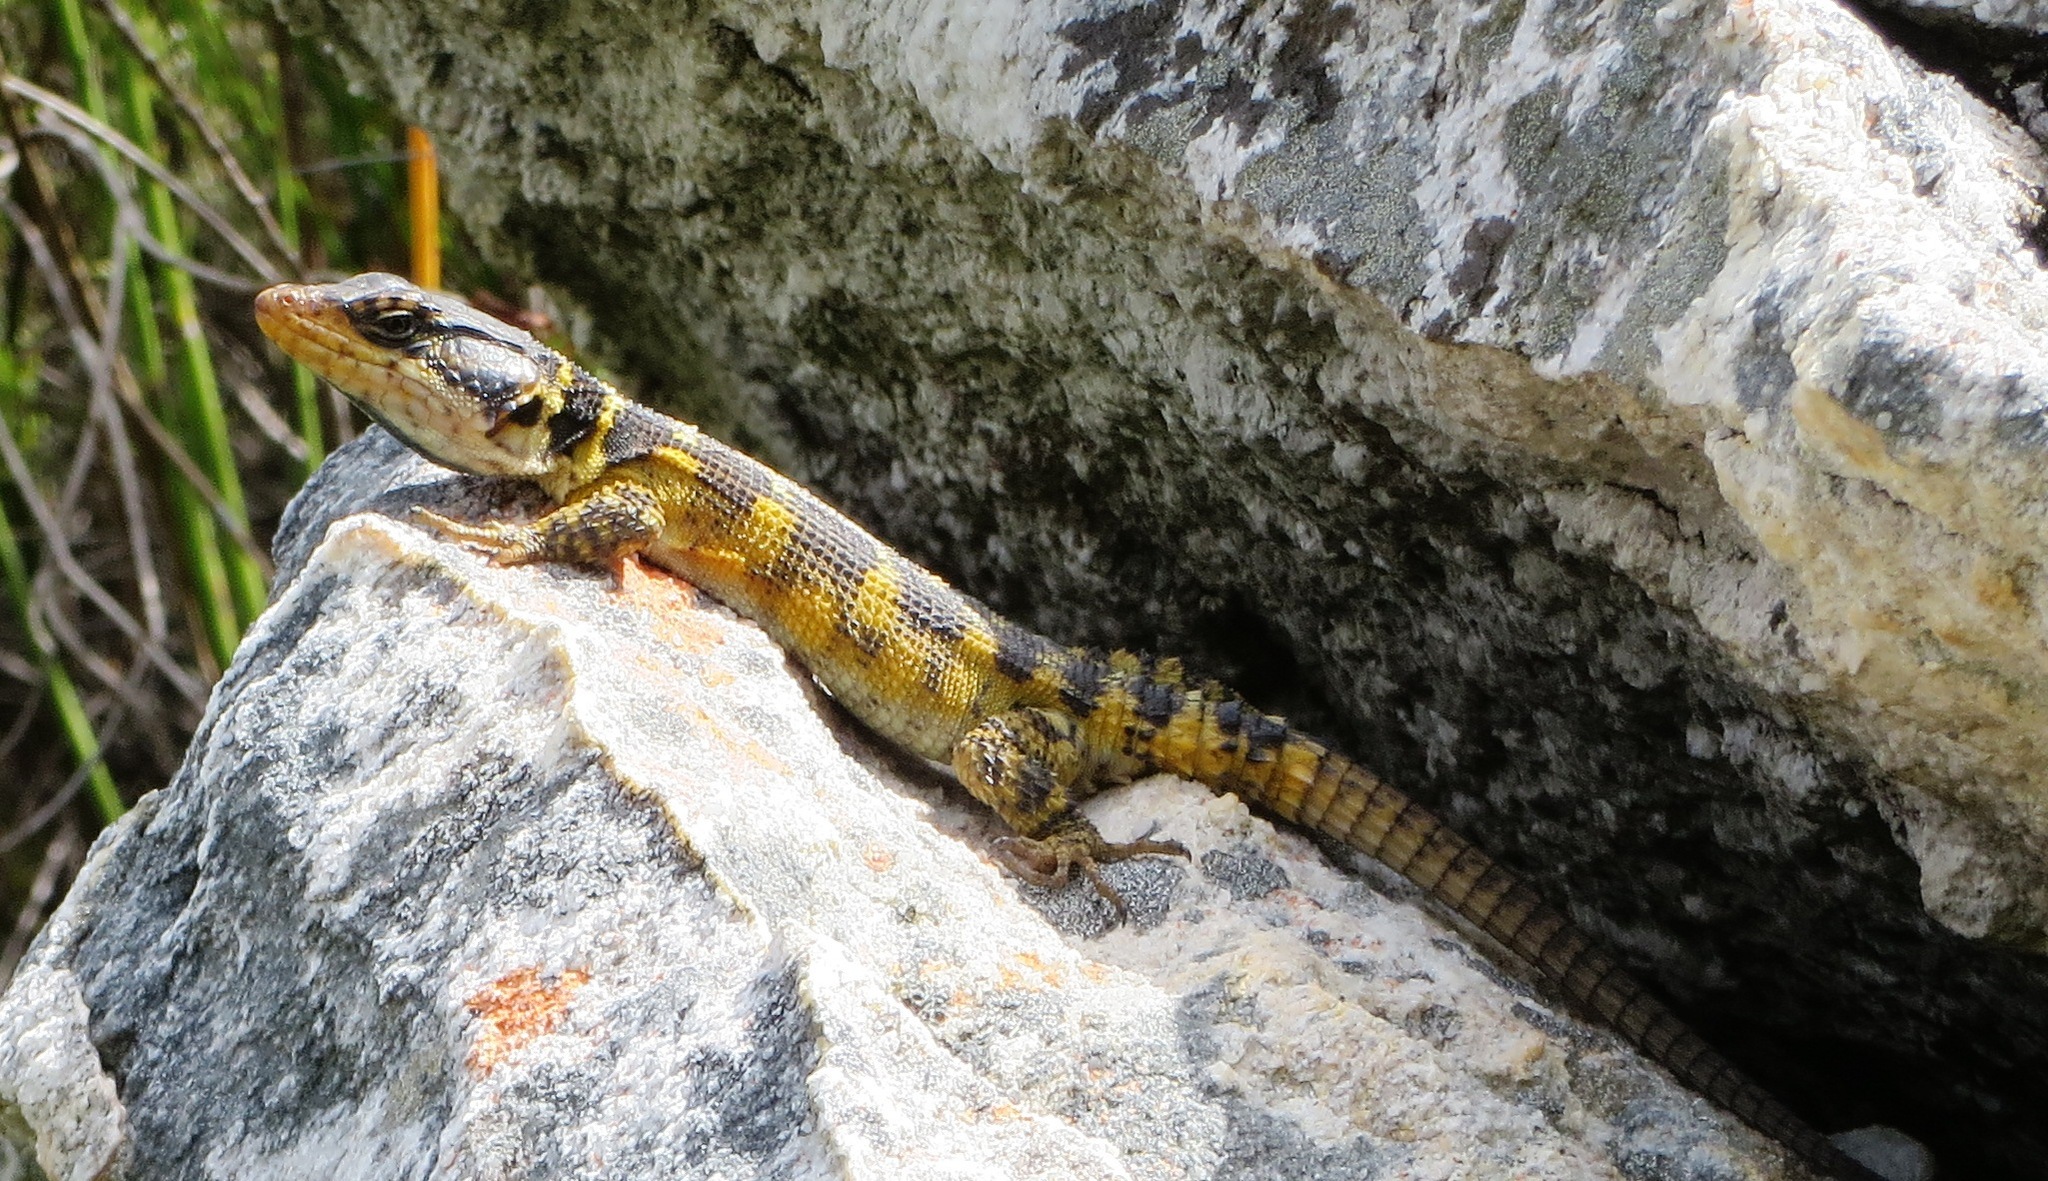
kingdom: Animalia
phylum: Chordata
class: Squamata
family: Cordylidae
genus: Pseudocordylus
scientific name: Pseudocordylus microlepidotus
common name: Cape crag lizard
